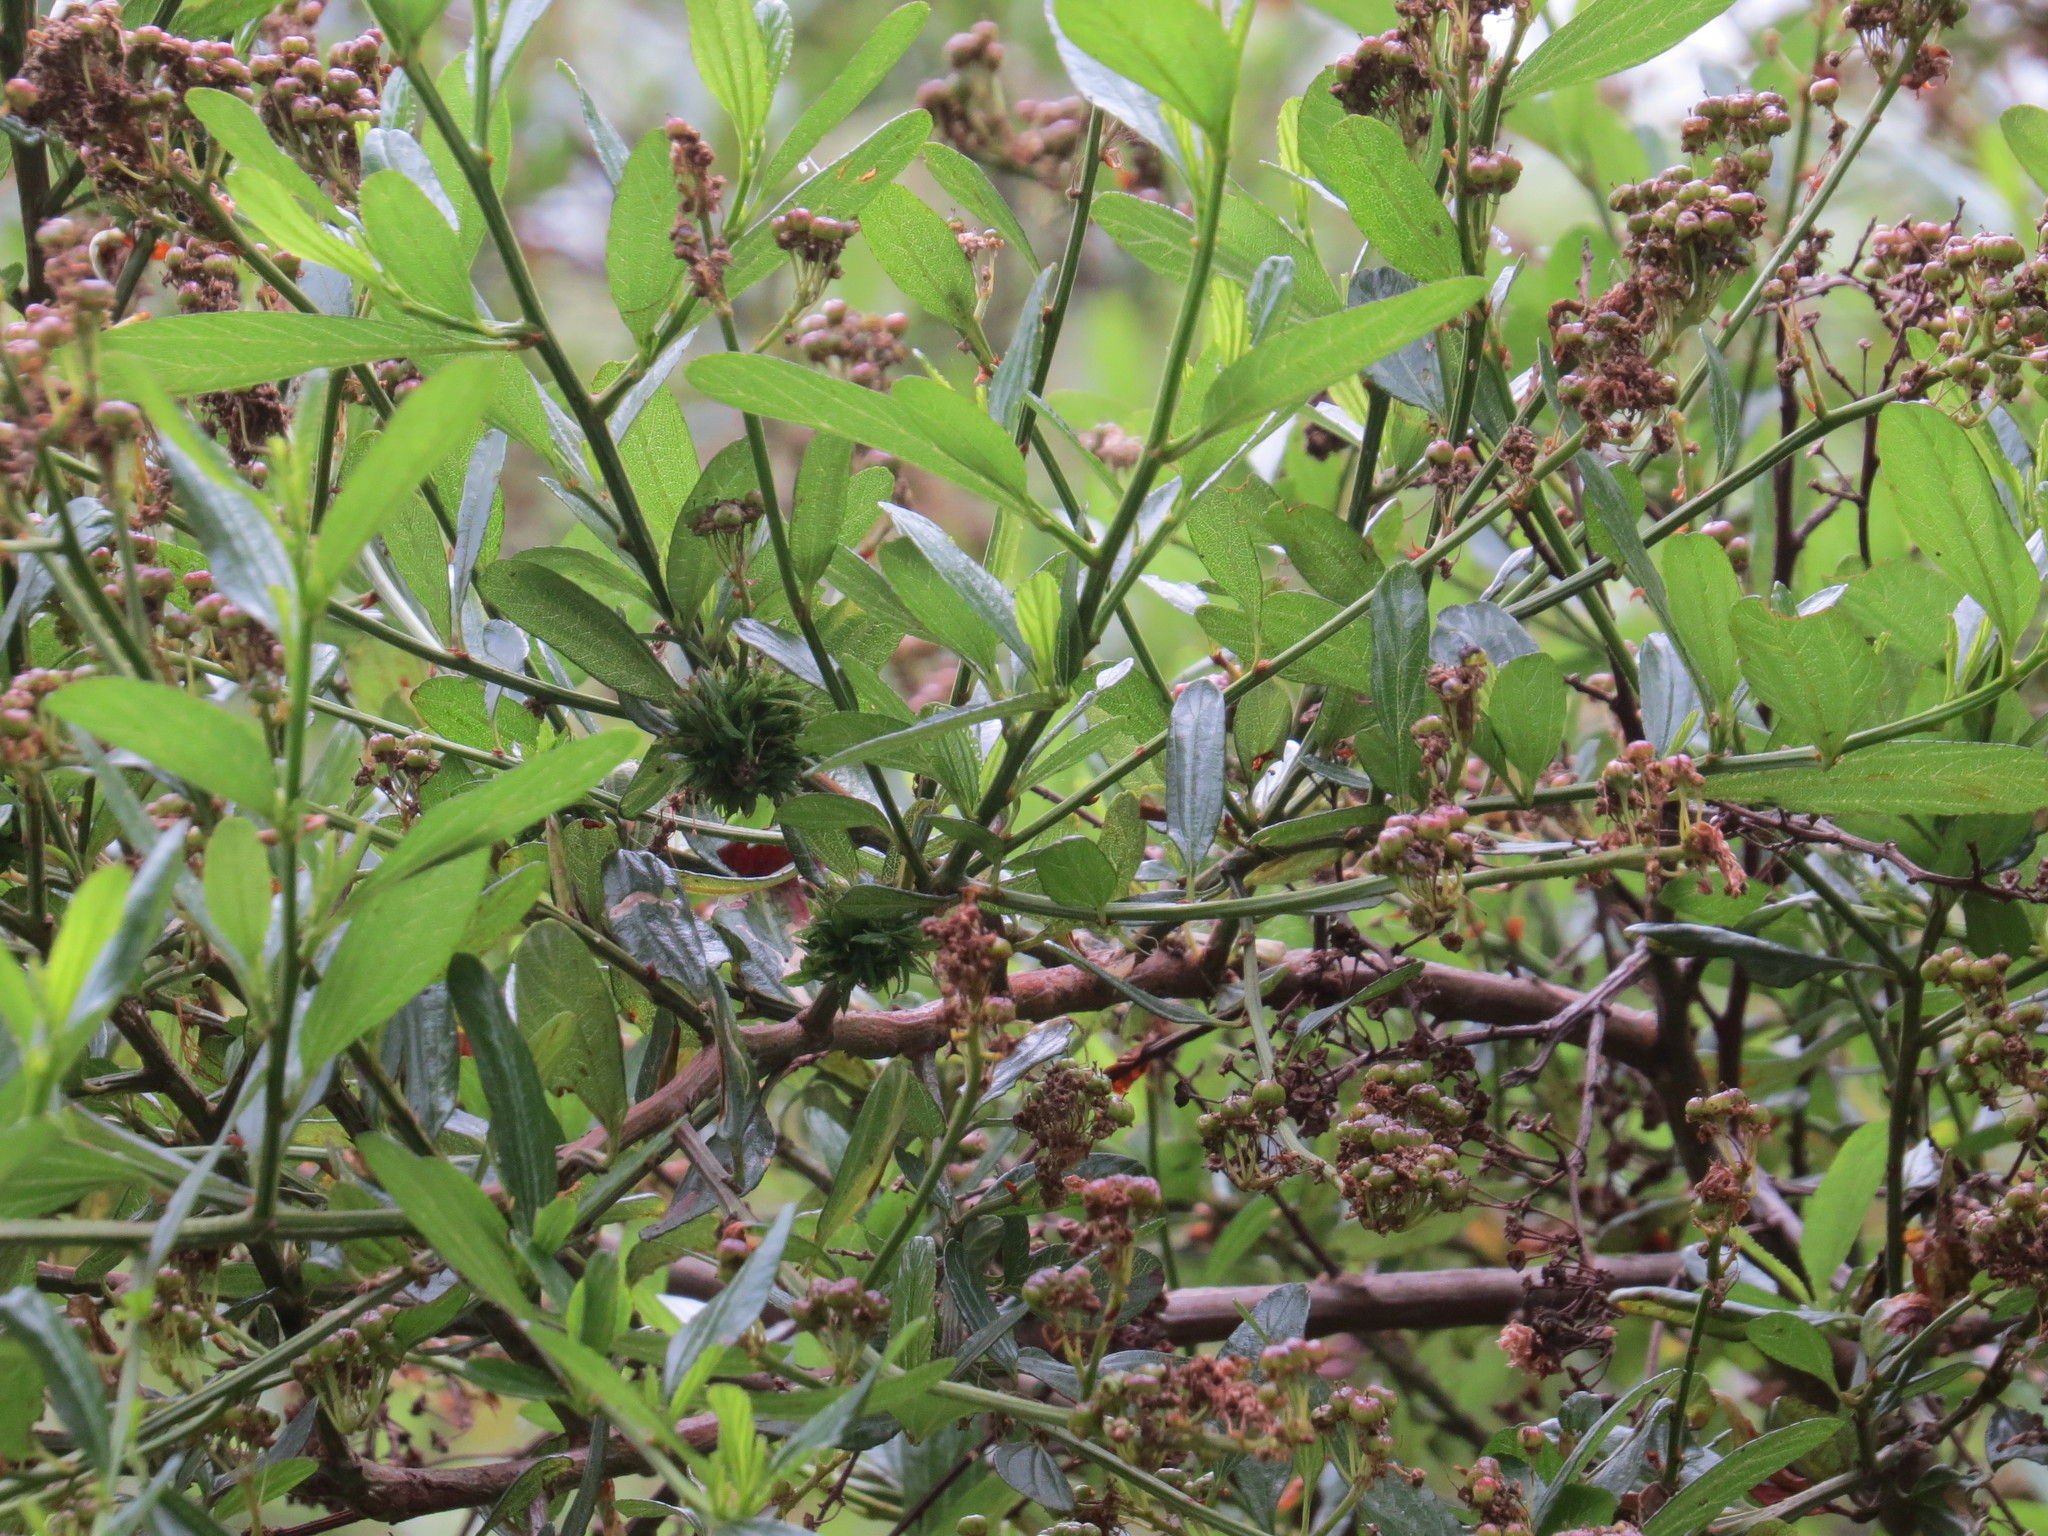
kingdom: Animalia
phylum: Arthropoda
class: Insecta
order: Diptera
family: Cecidomyiidae
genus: Asphondylia
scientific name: Asphondylia ceanothi
